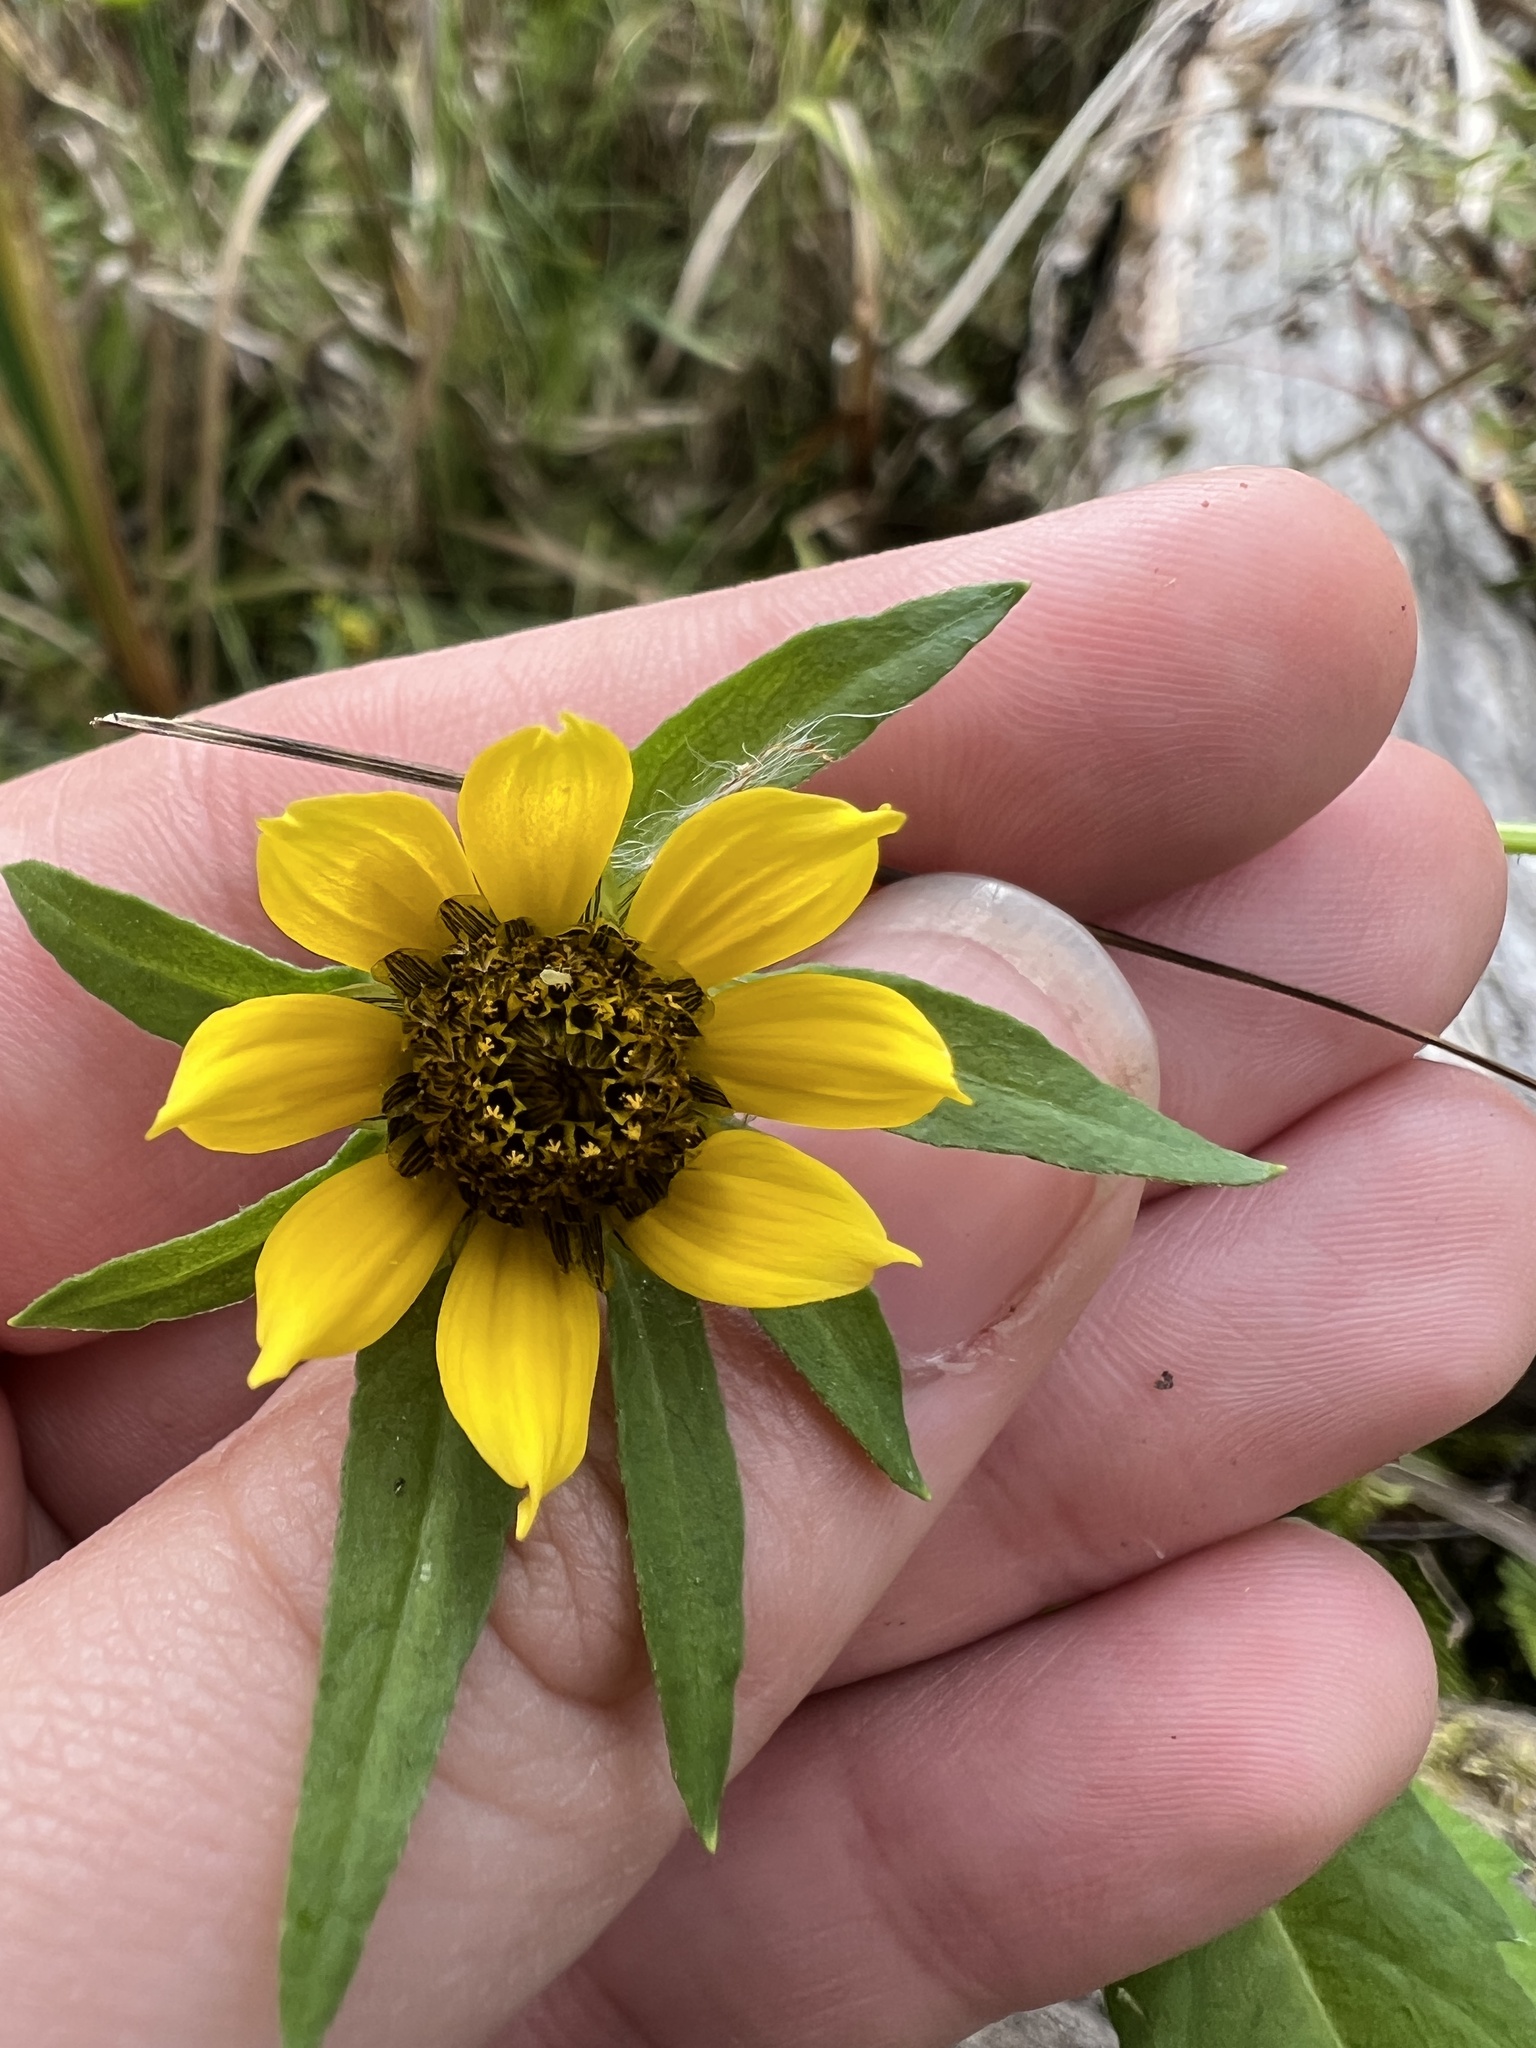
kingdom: Plantae
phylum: Tracheophyta
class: Magnoliopsida
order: Asterales
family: Asteraceae
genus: Bidens
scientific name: Bidens cernua
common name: Nodding bur-marigold
